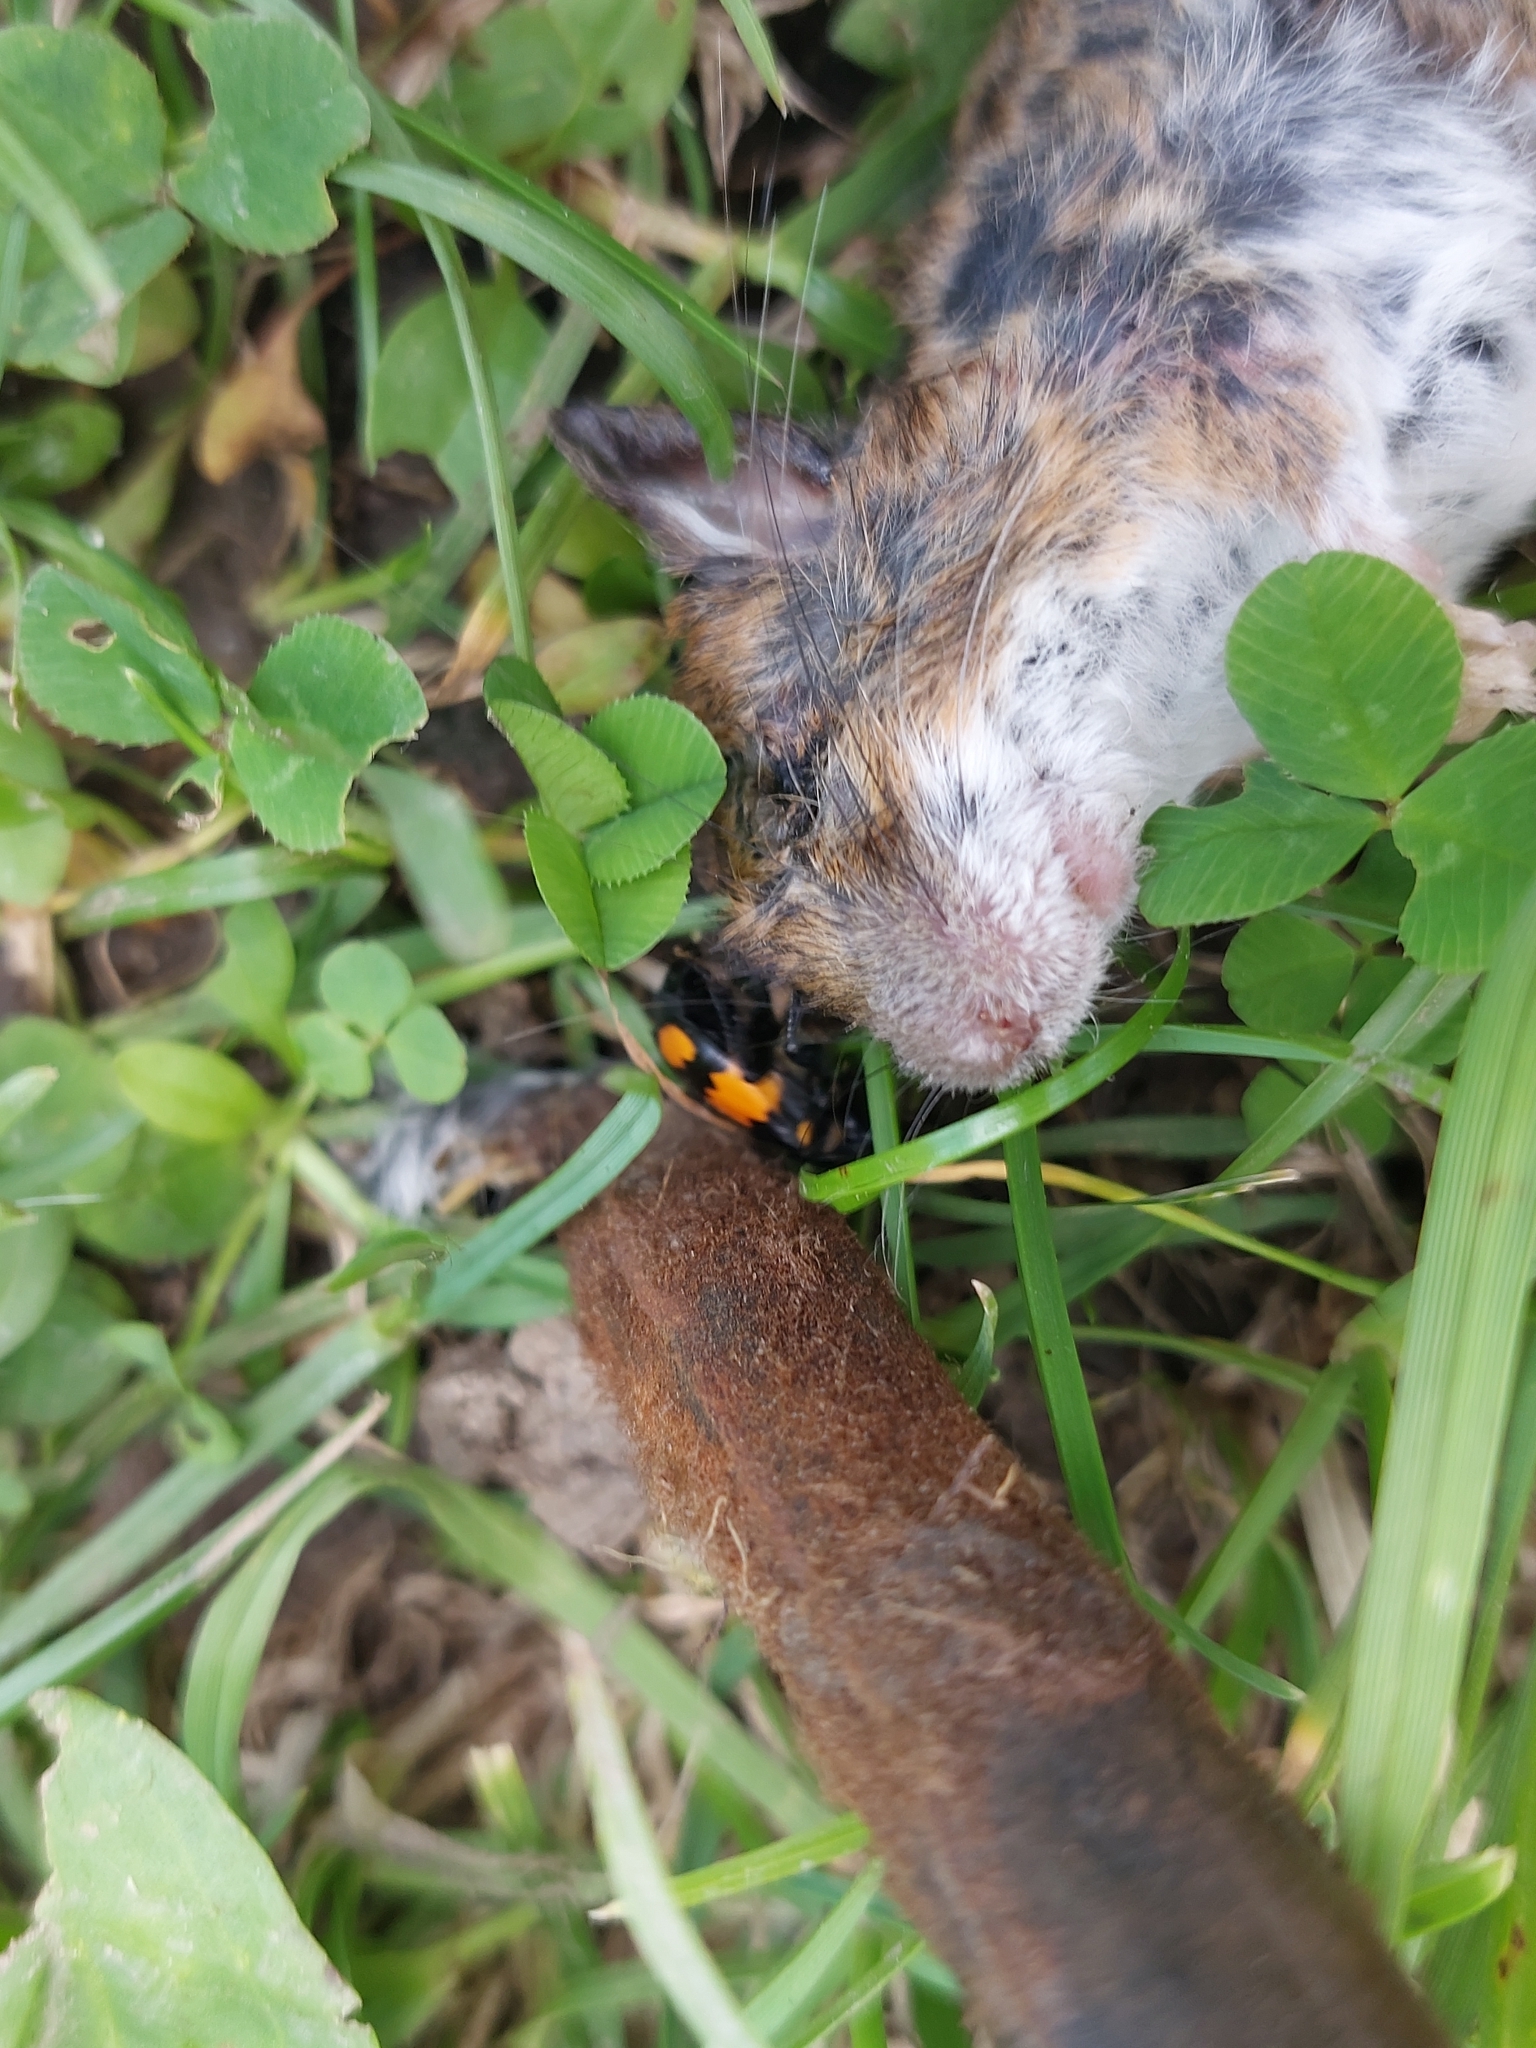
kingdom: Animalia
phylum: Arthropoda
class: Insecta
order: Coleoptera
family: Staphylinidae
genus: Nicrophorus
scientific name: Nicrophorus vespilloides
